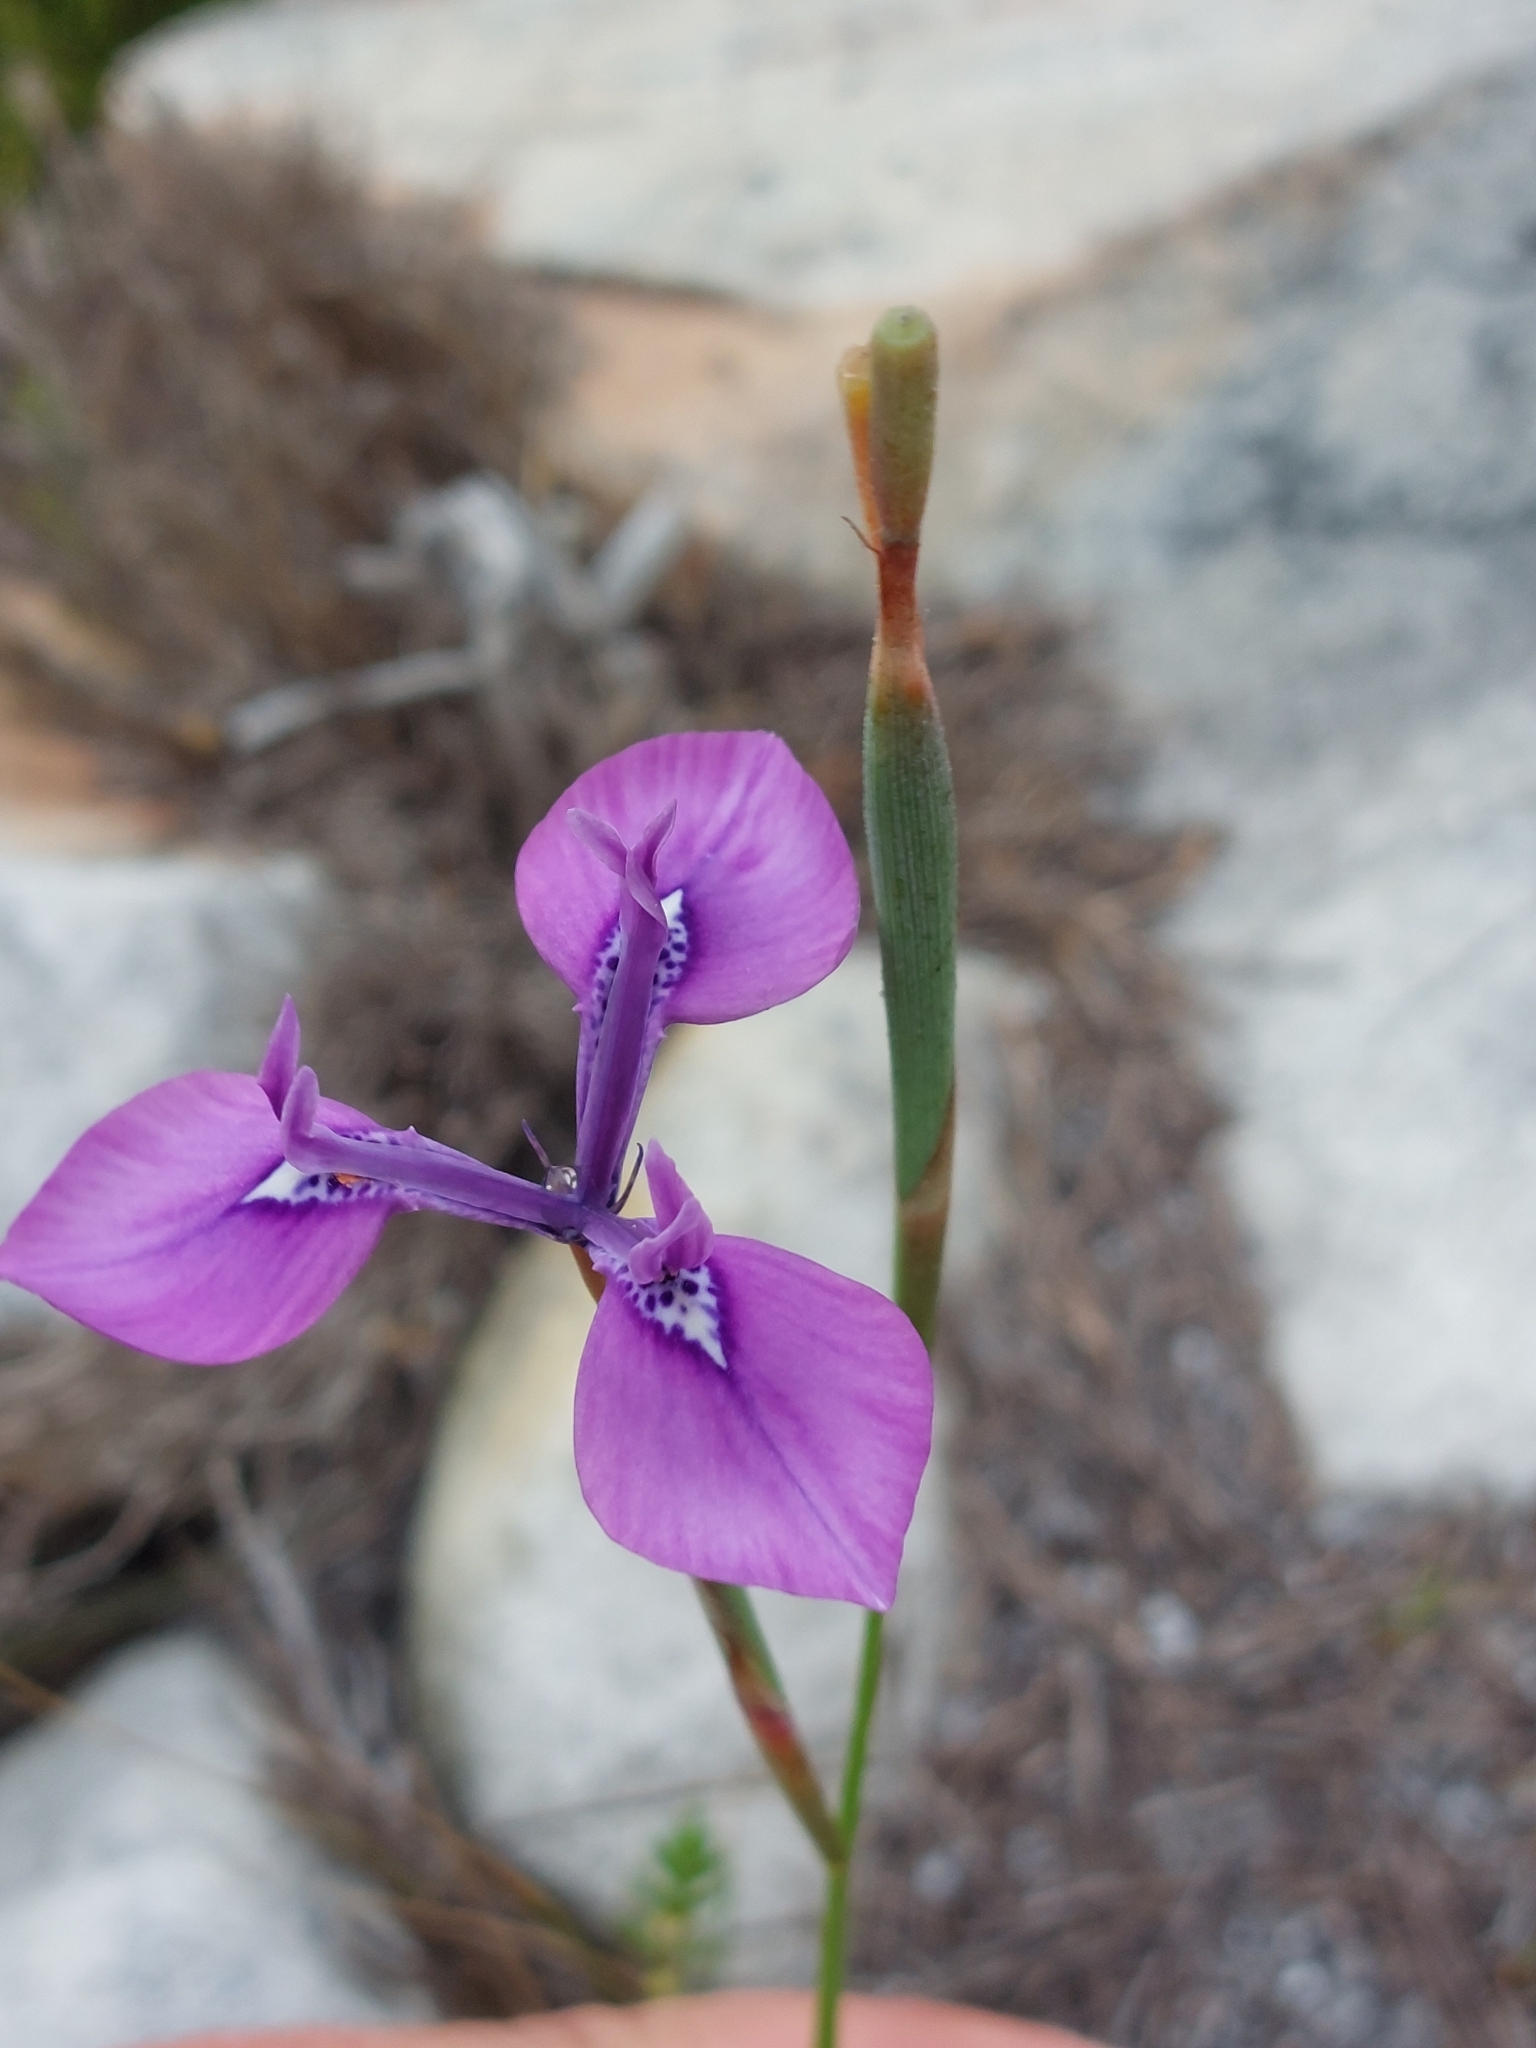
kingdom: Plantae
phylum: Tracheophyta
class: Liliopsida
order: Asparagales
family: Iridaceae
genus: Moraea
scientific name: Moraea tripetala
